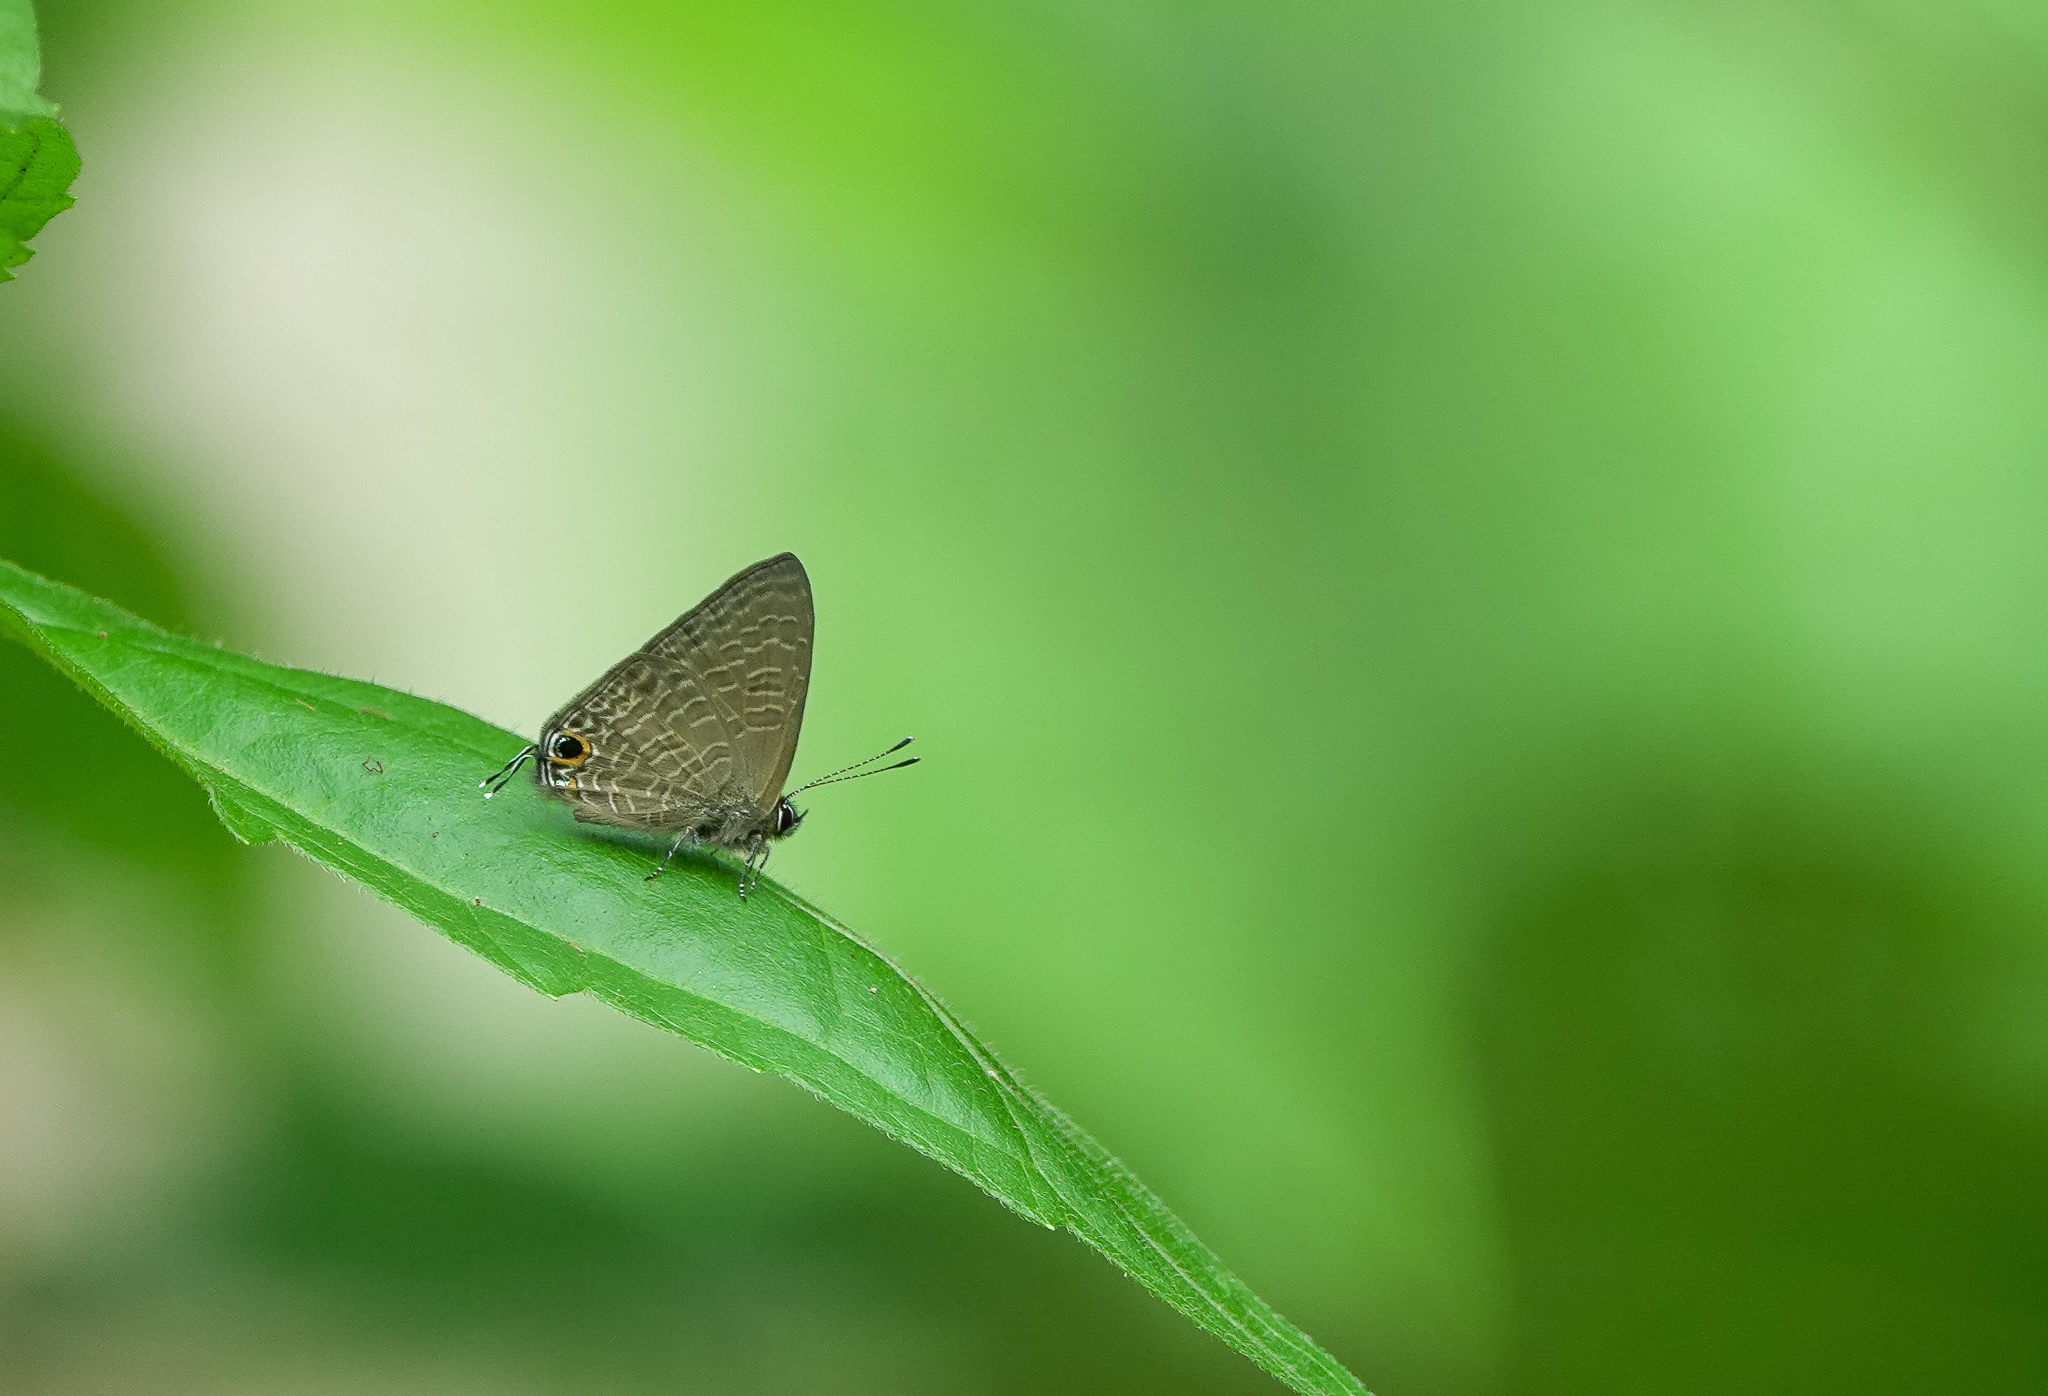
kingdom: Animalia
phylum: Arthropoda
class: Insecta
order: Lepidoptera
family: Lycaenidae
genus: Ionolyce
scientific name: Ionolyce helicon
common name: Pointed line blue
